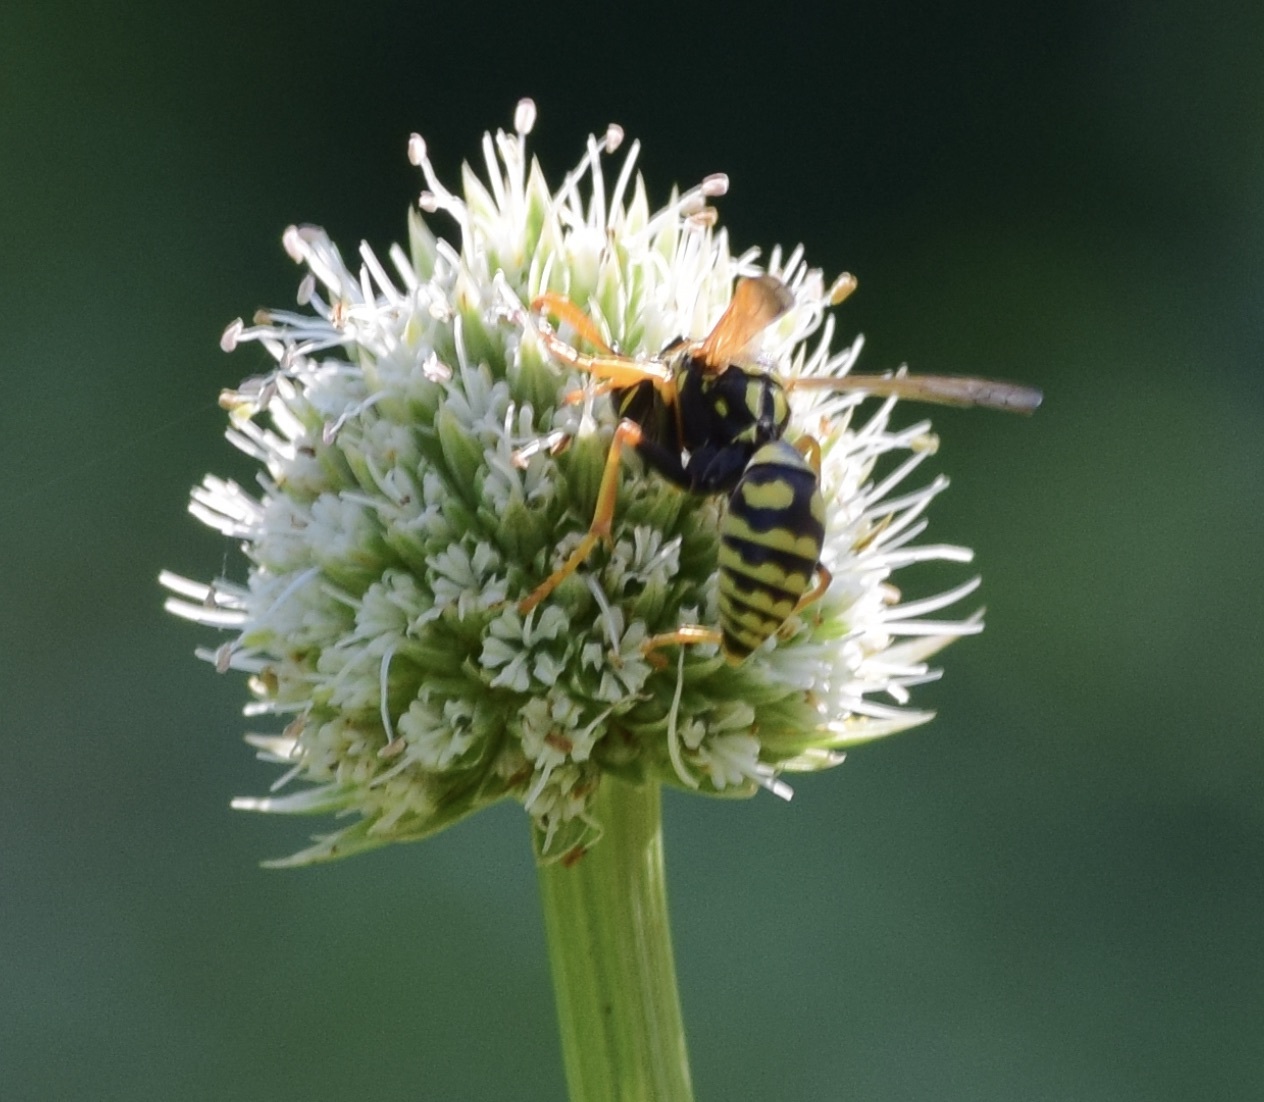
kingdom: Animalia
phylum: Arthropoda
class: Insecta
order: Hymenoptera
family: Eumenidae
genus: Polistes
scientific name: Polistes dominula
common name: Paper wasp
